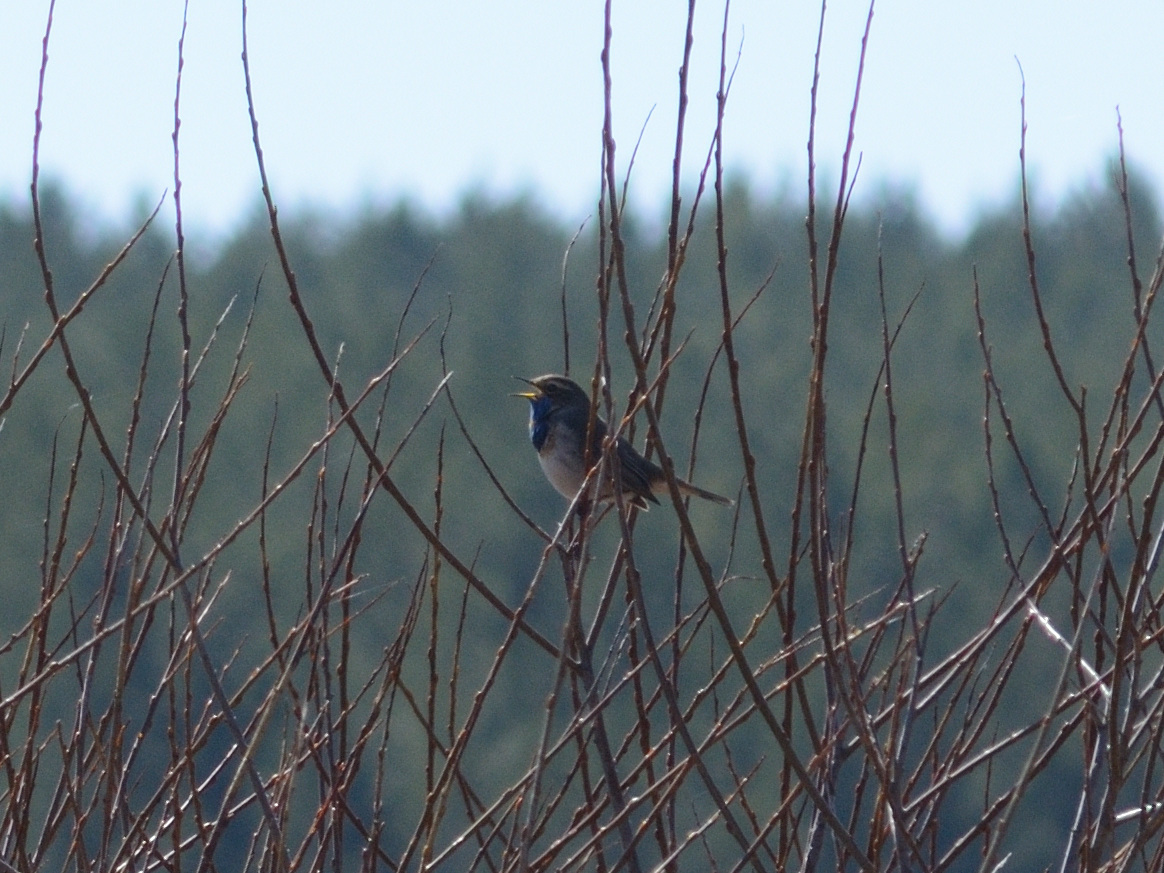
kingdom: Animalia
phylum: Chordata
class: Aves
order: Passeriformes
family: Muscicapidae
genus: Luscinia
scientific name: Luscinia svecica
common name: Bluethroat
